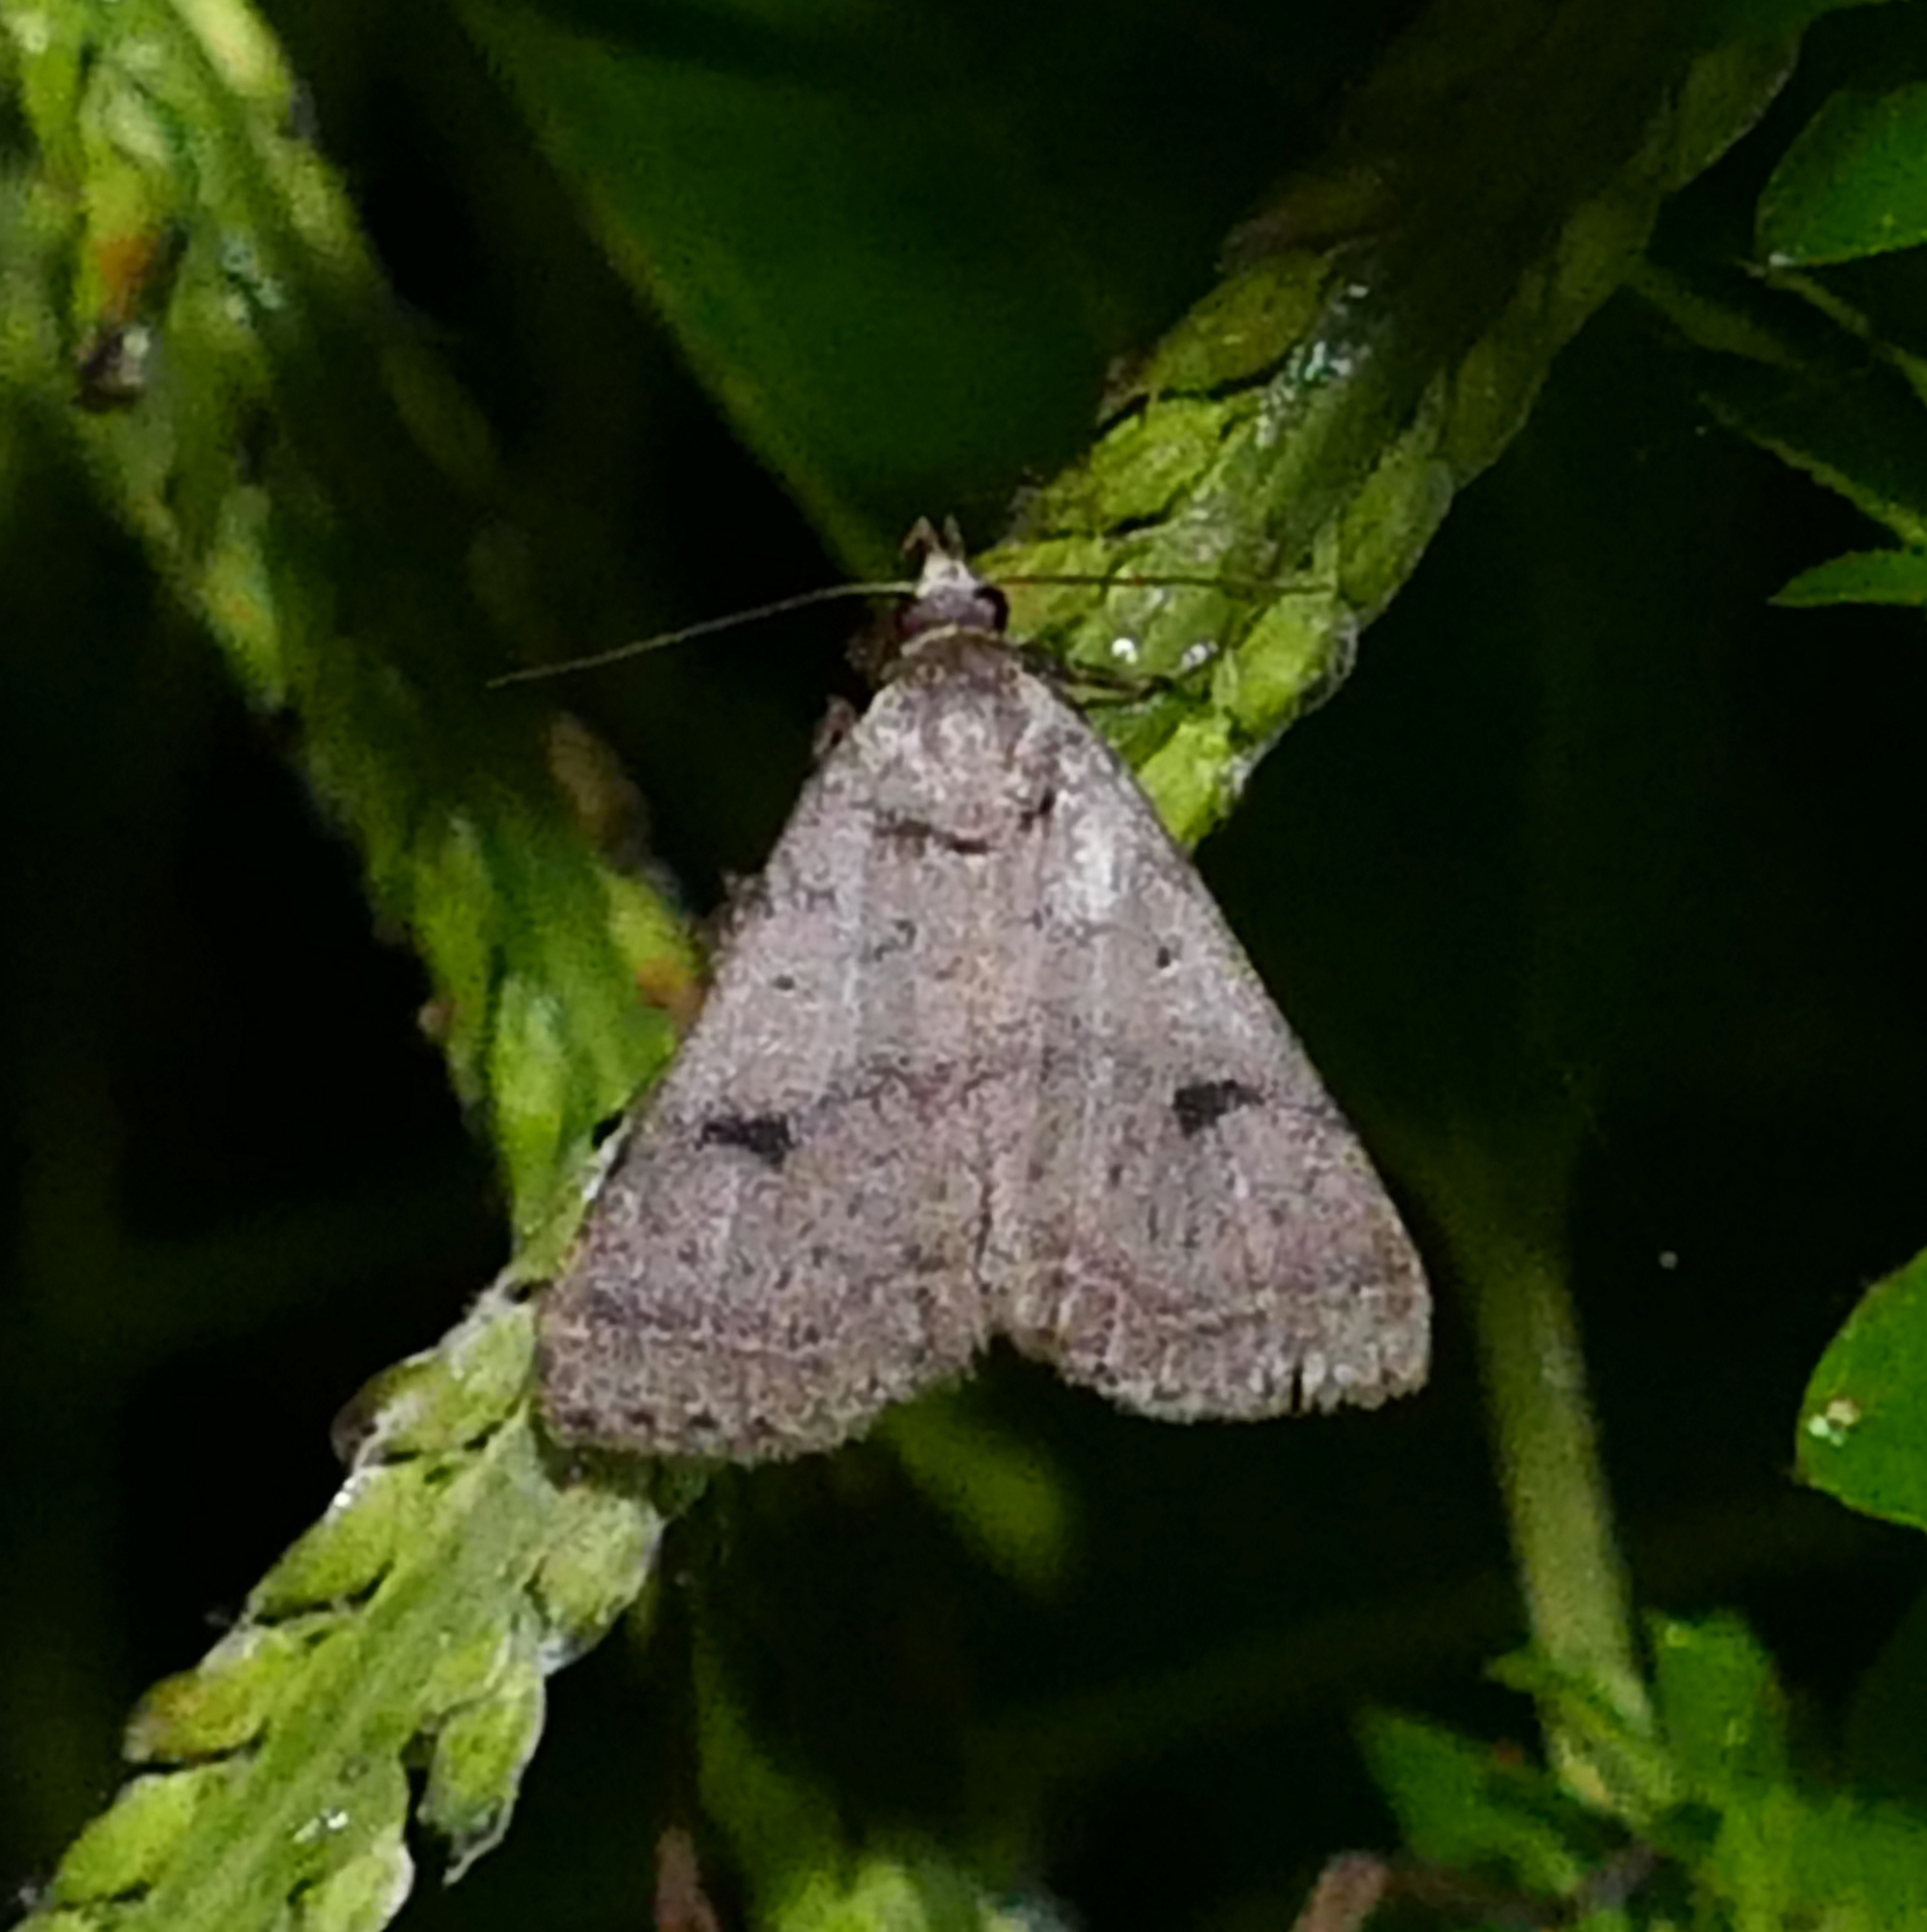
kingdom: Animalia
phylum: Arthropoda
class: Insecta
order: Lepidoptera
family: Erebidae
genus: Bleptina
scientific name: Bleptina caradrinalis
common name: Bent-winged owlet
